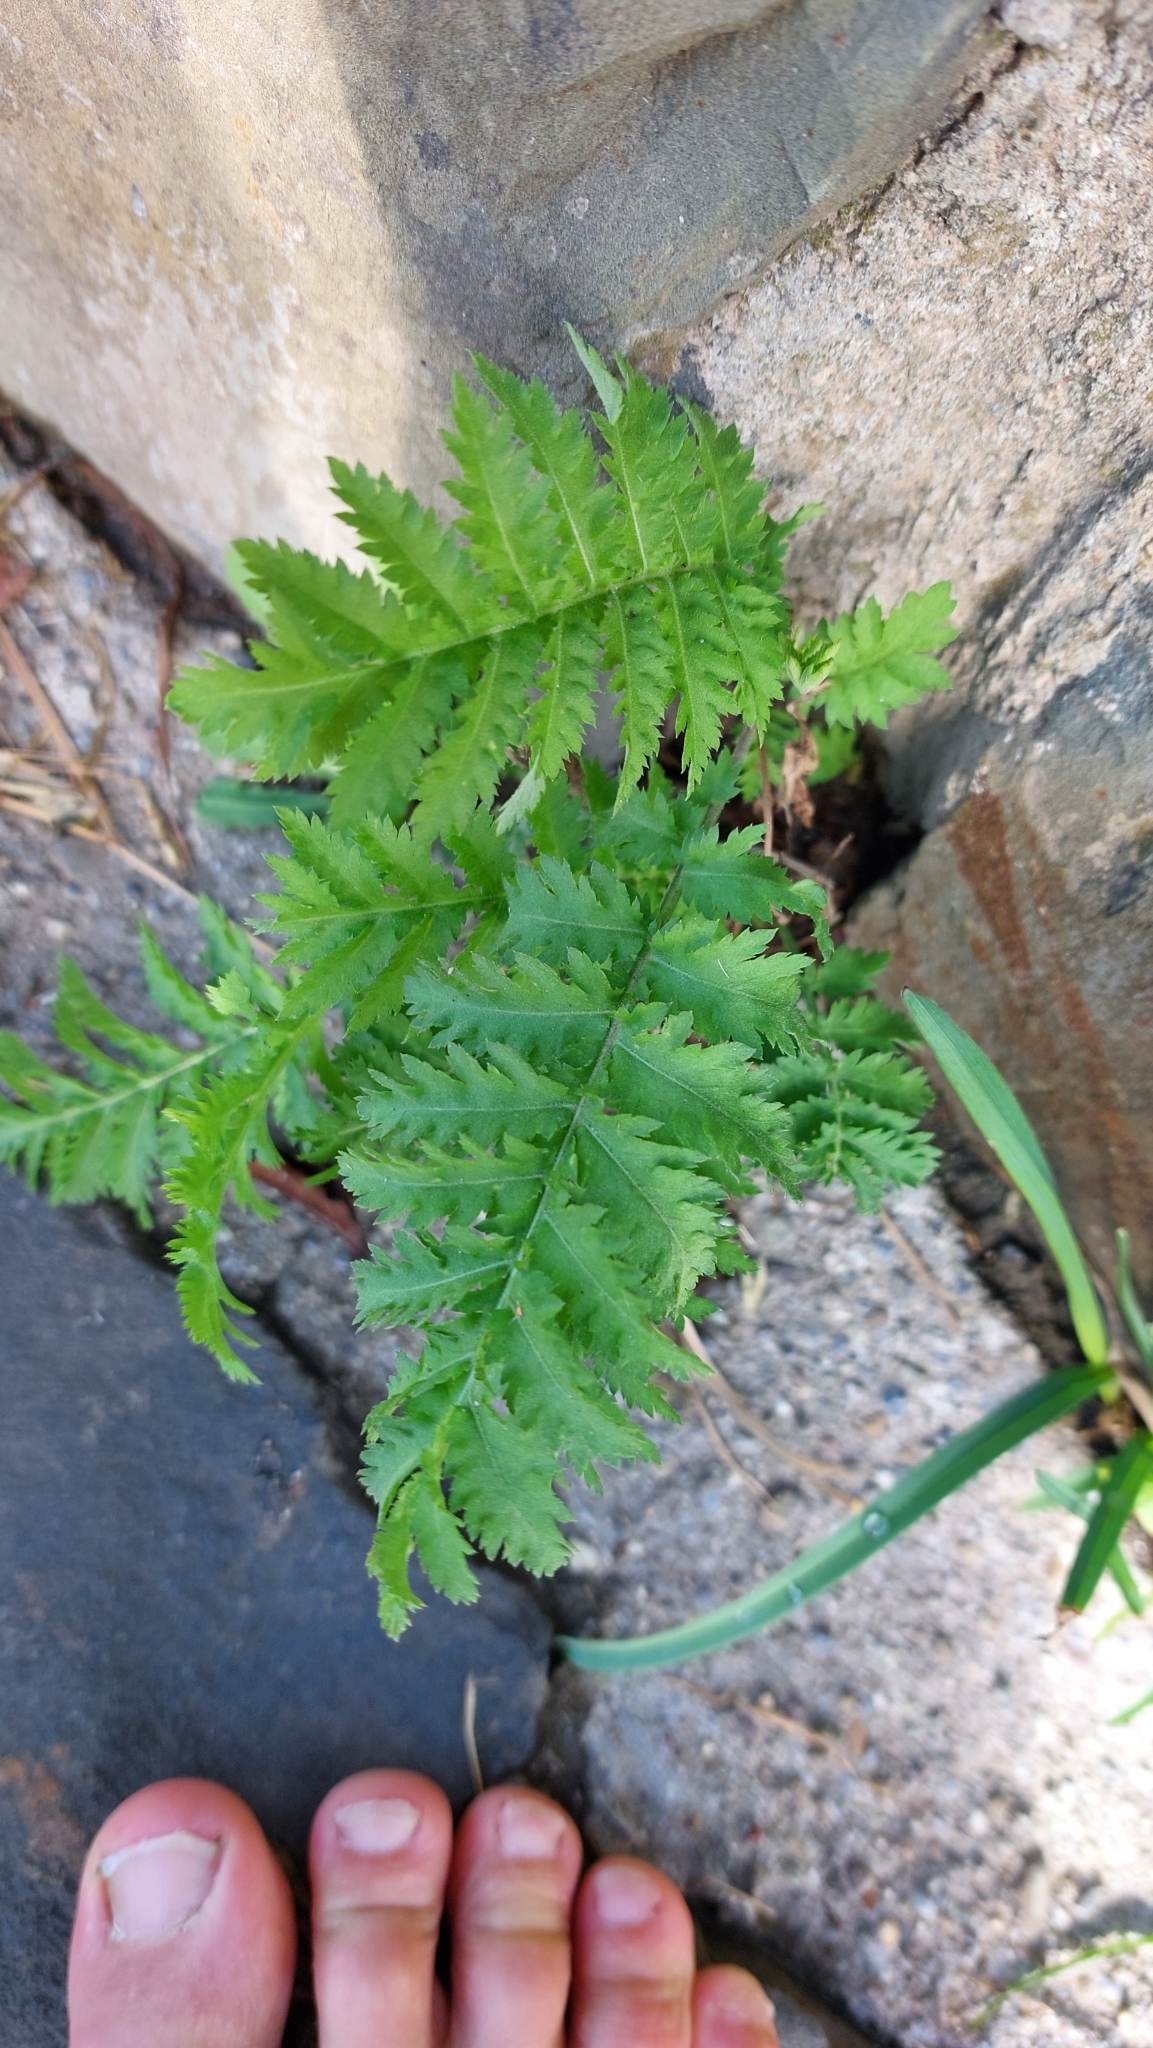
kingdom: Plantae
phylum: Tracheophyta
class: Magnoliopsida
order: Asterales
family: Asteraceae
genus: Tanacetum
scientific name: Tanacetum vulgare
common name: Common tansy
